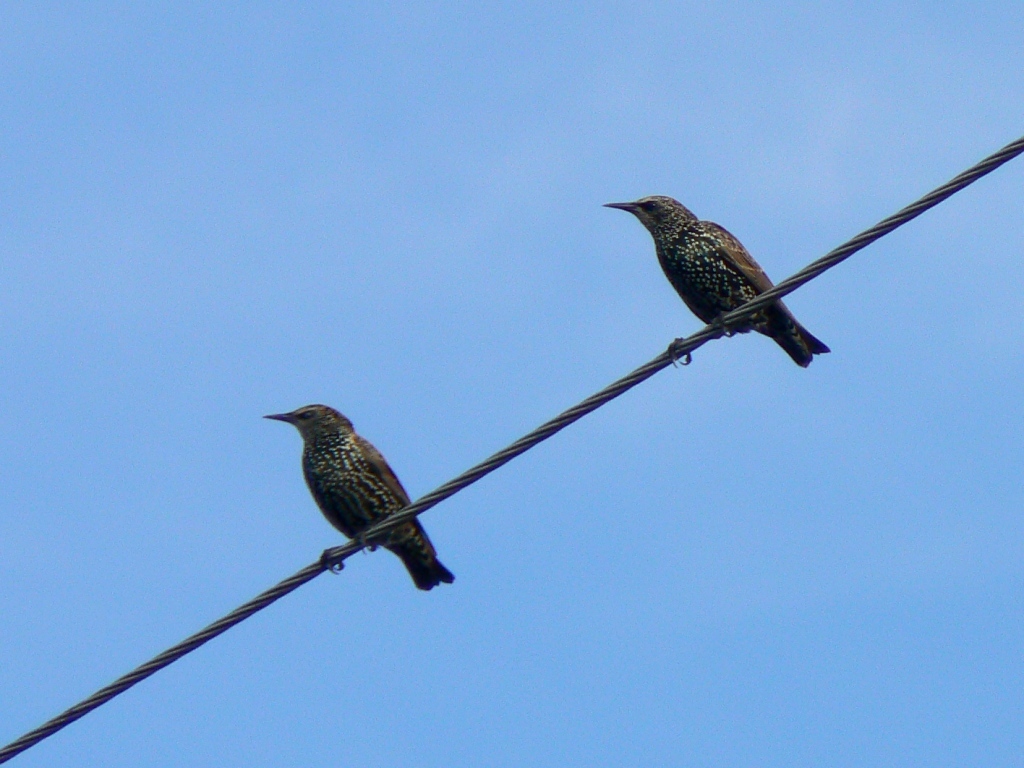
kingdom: Animalia
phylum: Chordata
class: Aves
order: Passeriformes
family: Sturnidae
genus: Sturnus
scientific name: Sturnus vulgaris
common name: Common starling
